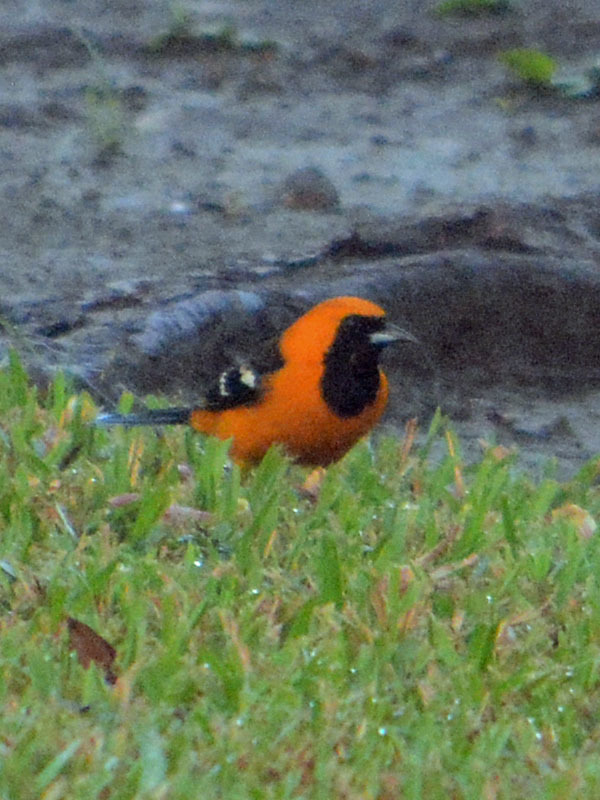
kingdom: Animalia
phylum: Chordata
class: Aves
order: Passeriformes
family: Icteridae
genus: Icterus
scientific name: Icterus cucullatus
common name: Hooded oriole
